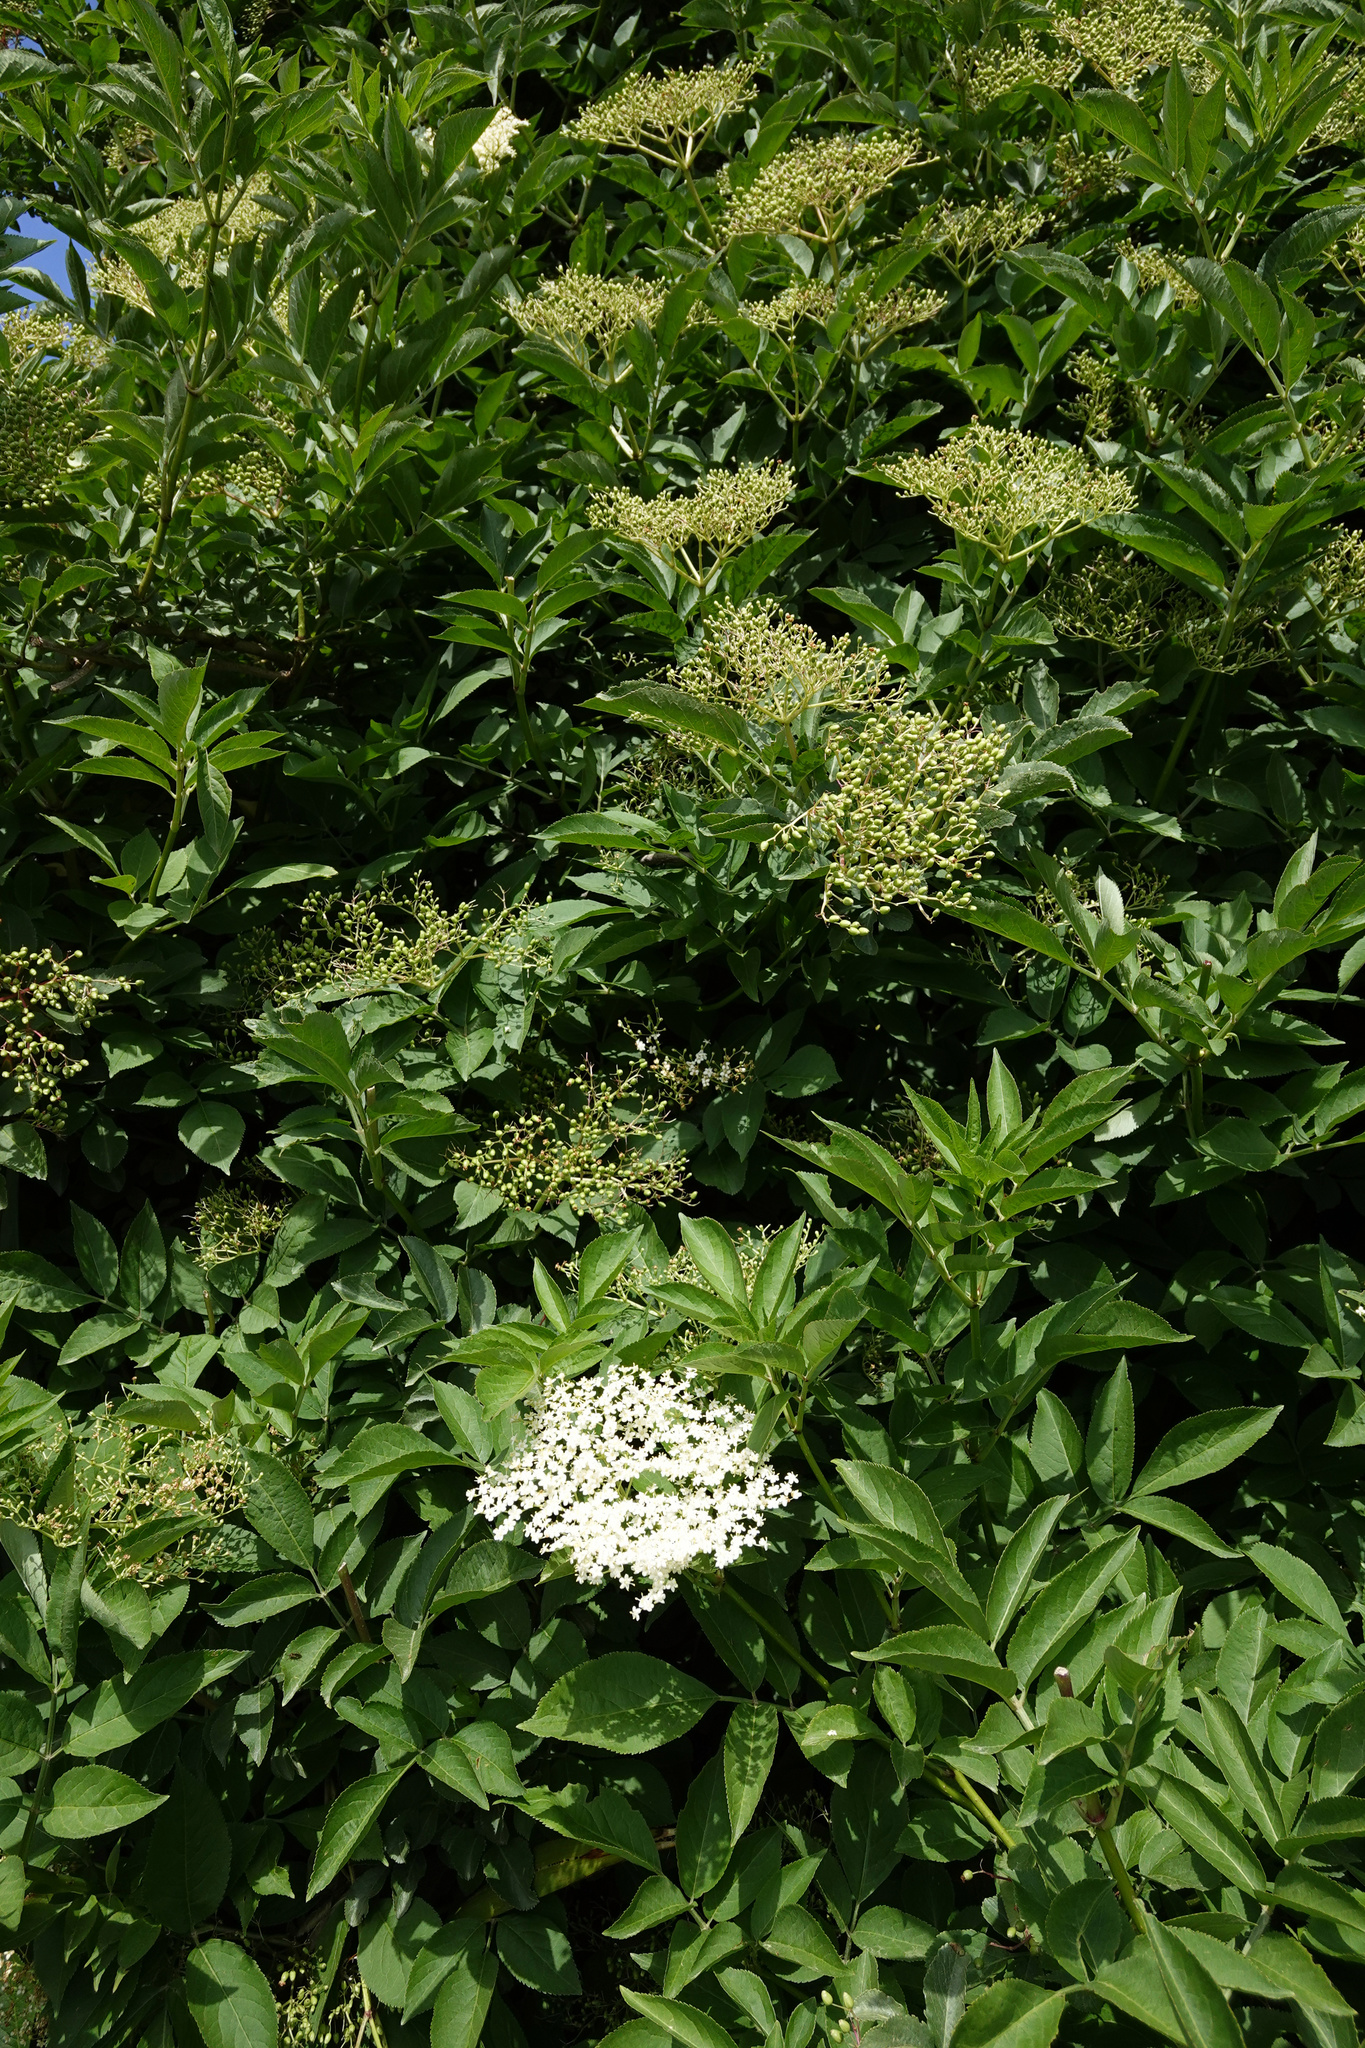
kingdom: Plantae
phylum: Tracheophyta
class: Magnoliopsida
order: Dipsacales
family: Viburnaceae
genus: Sambucus
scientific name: Sambucus nigra
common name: Elder
